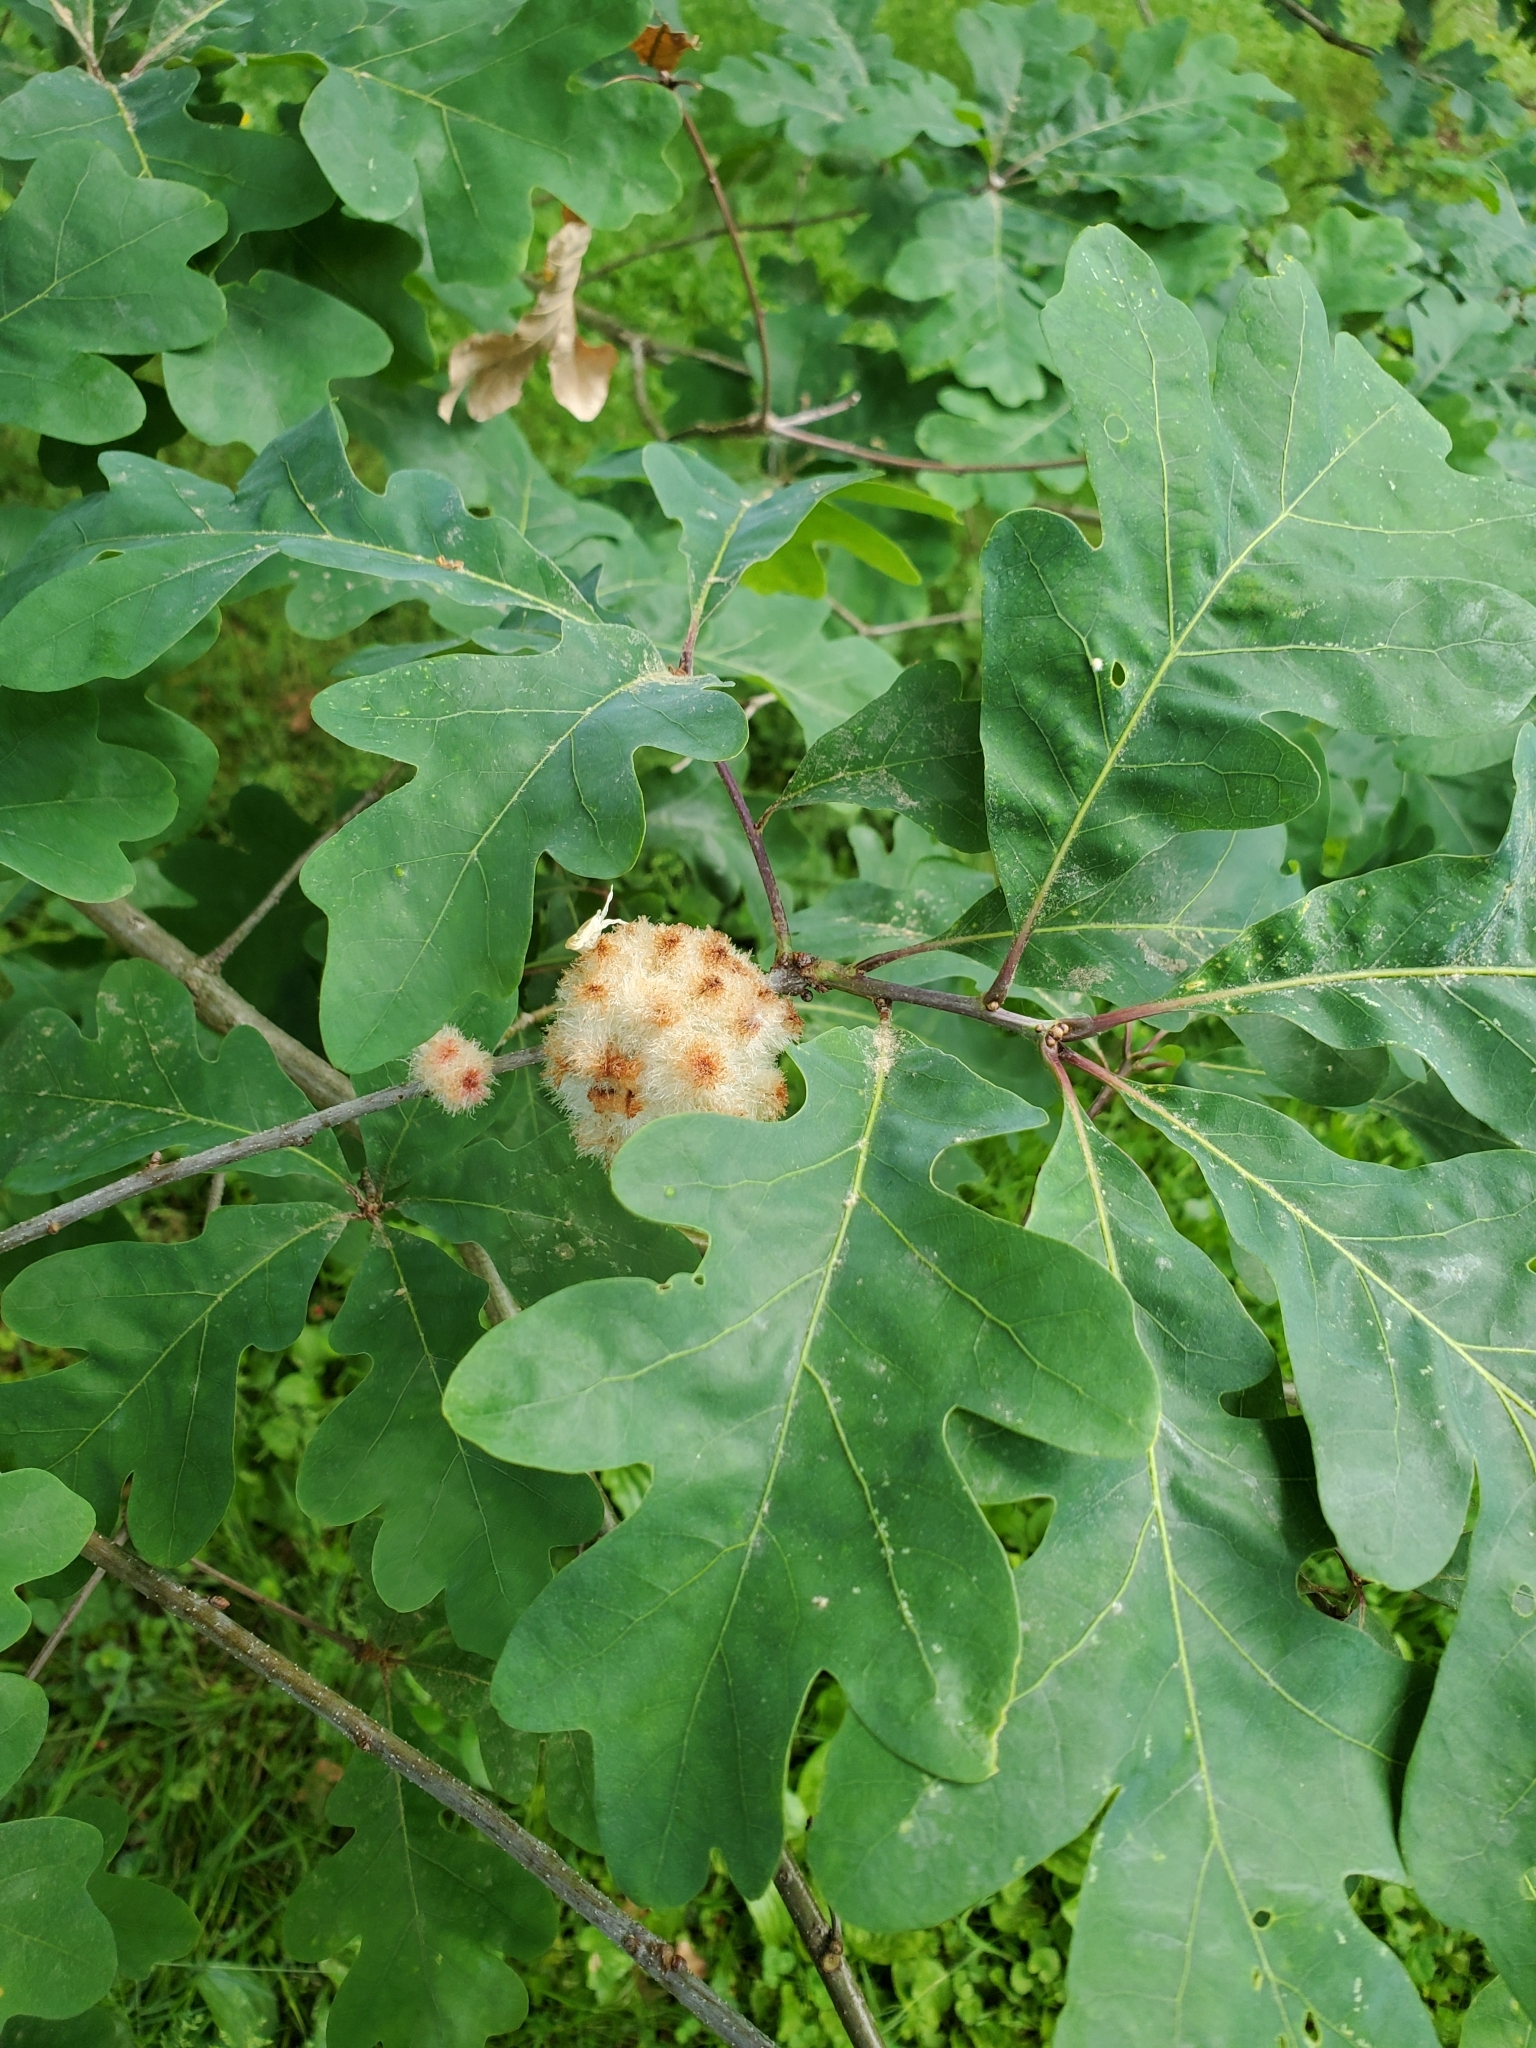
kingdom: Animalia
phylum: Arthropoda
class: Insecta
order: Hymenoptera
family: Cynipidae
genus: Callirhytis
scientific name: Callirhytis
